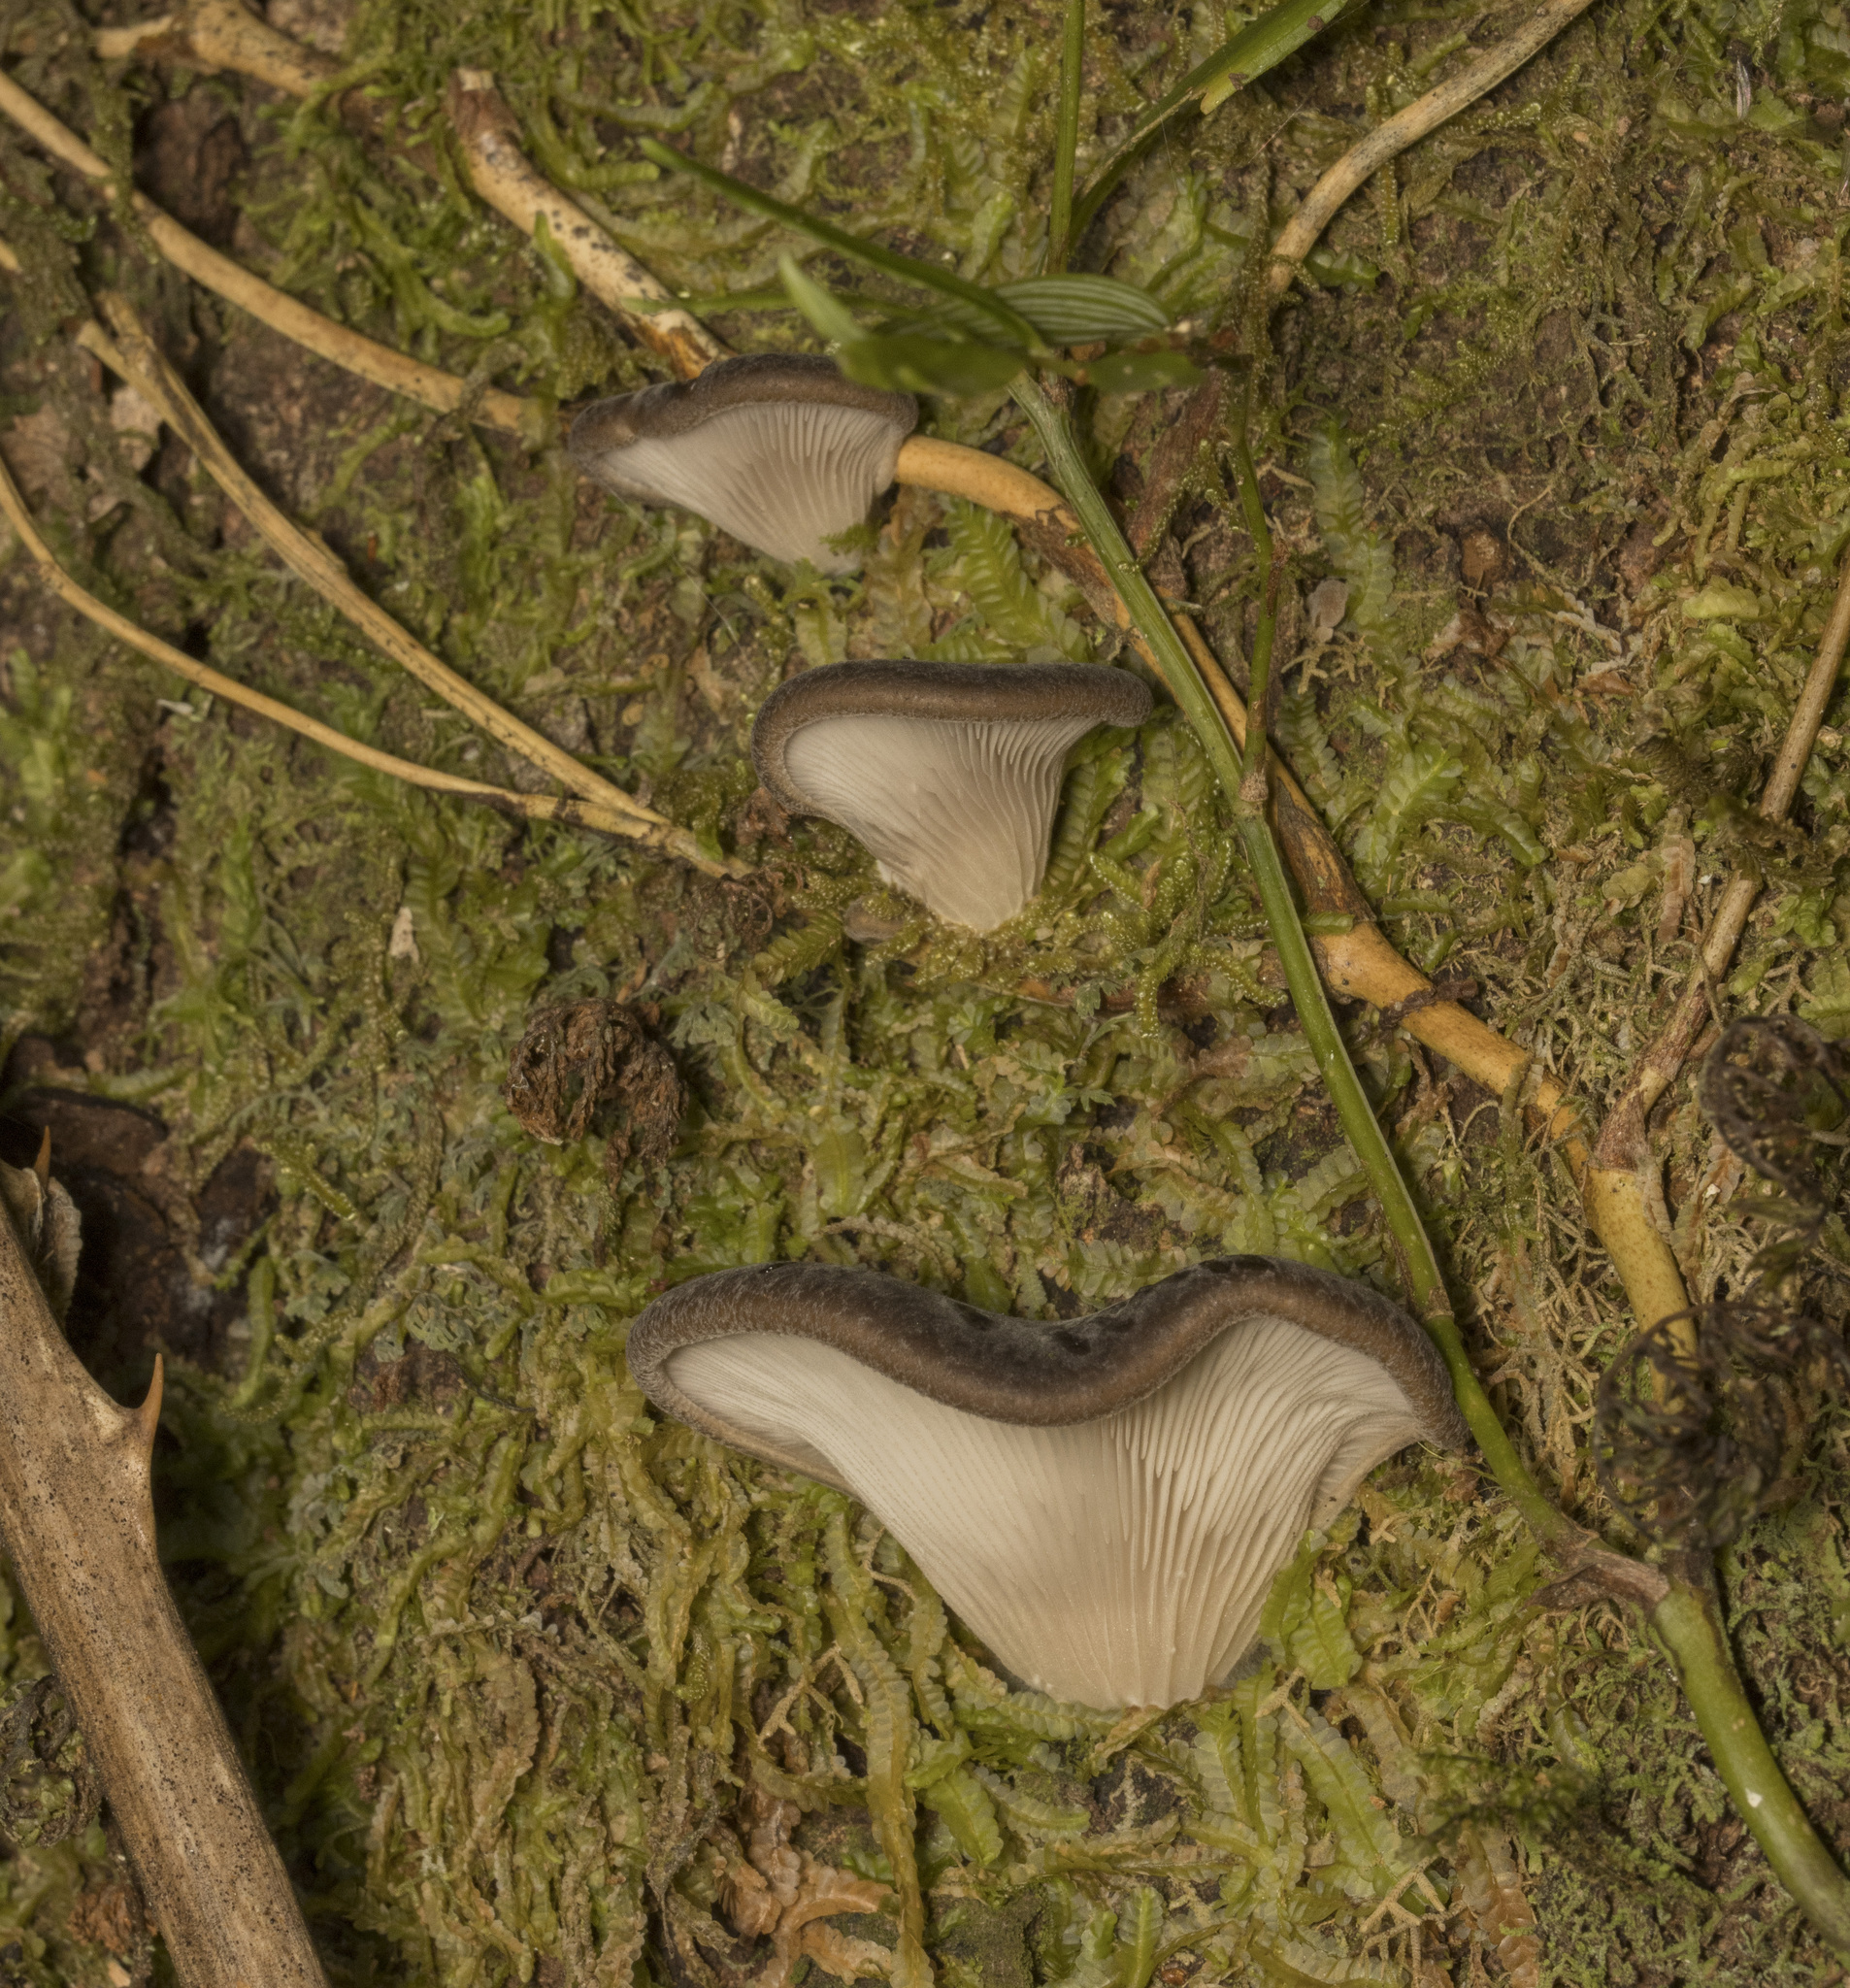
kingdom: Fungi
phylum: Basidiomycota
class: Agaricomycetes
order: Agaricales
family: Pleurotaceae
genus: Pleurotus
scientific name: Pleurotus ostreatus
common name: Oyster mushroom
